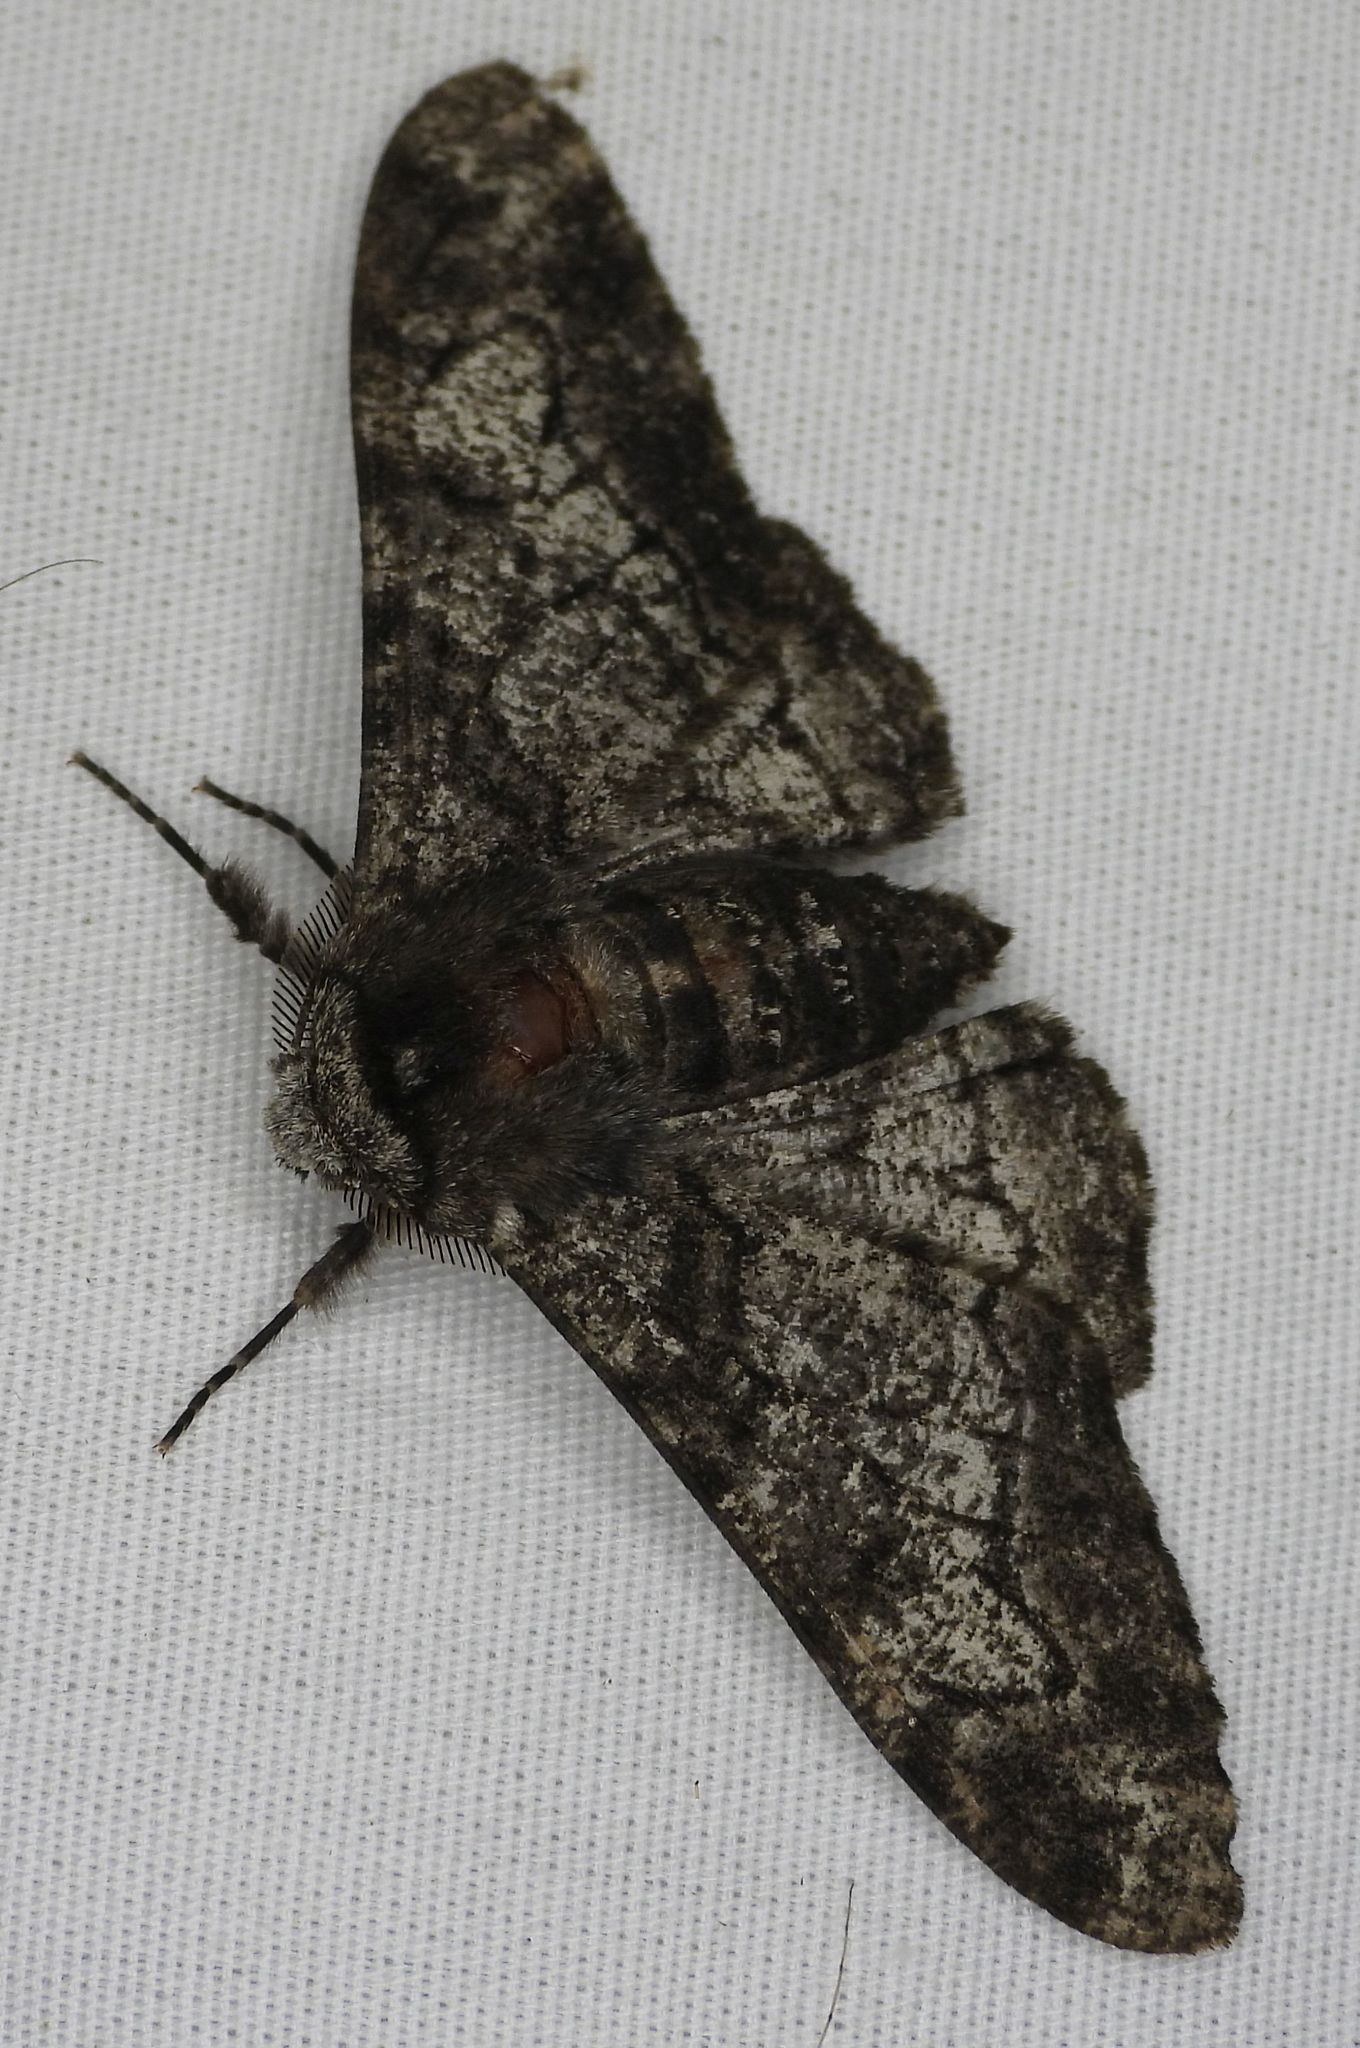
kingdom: Animalia
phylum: Arthropoda
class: Insecta
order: Lepidoptera
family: Geometridae
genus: Biston
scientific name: Biston betularia
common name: Peppered moth
